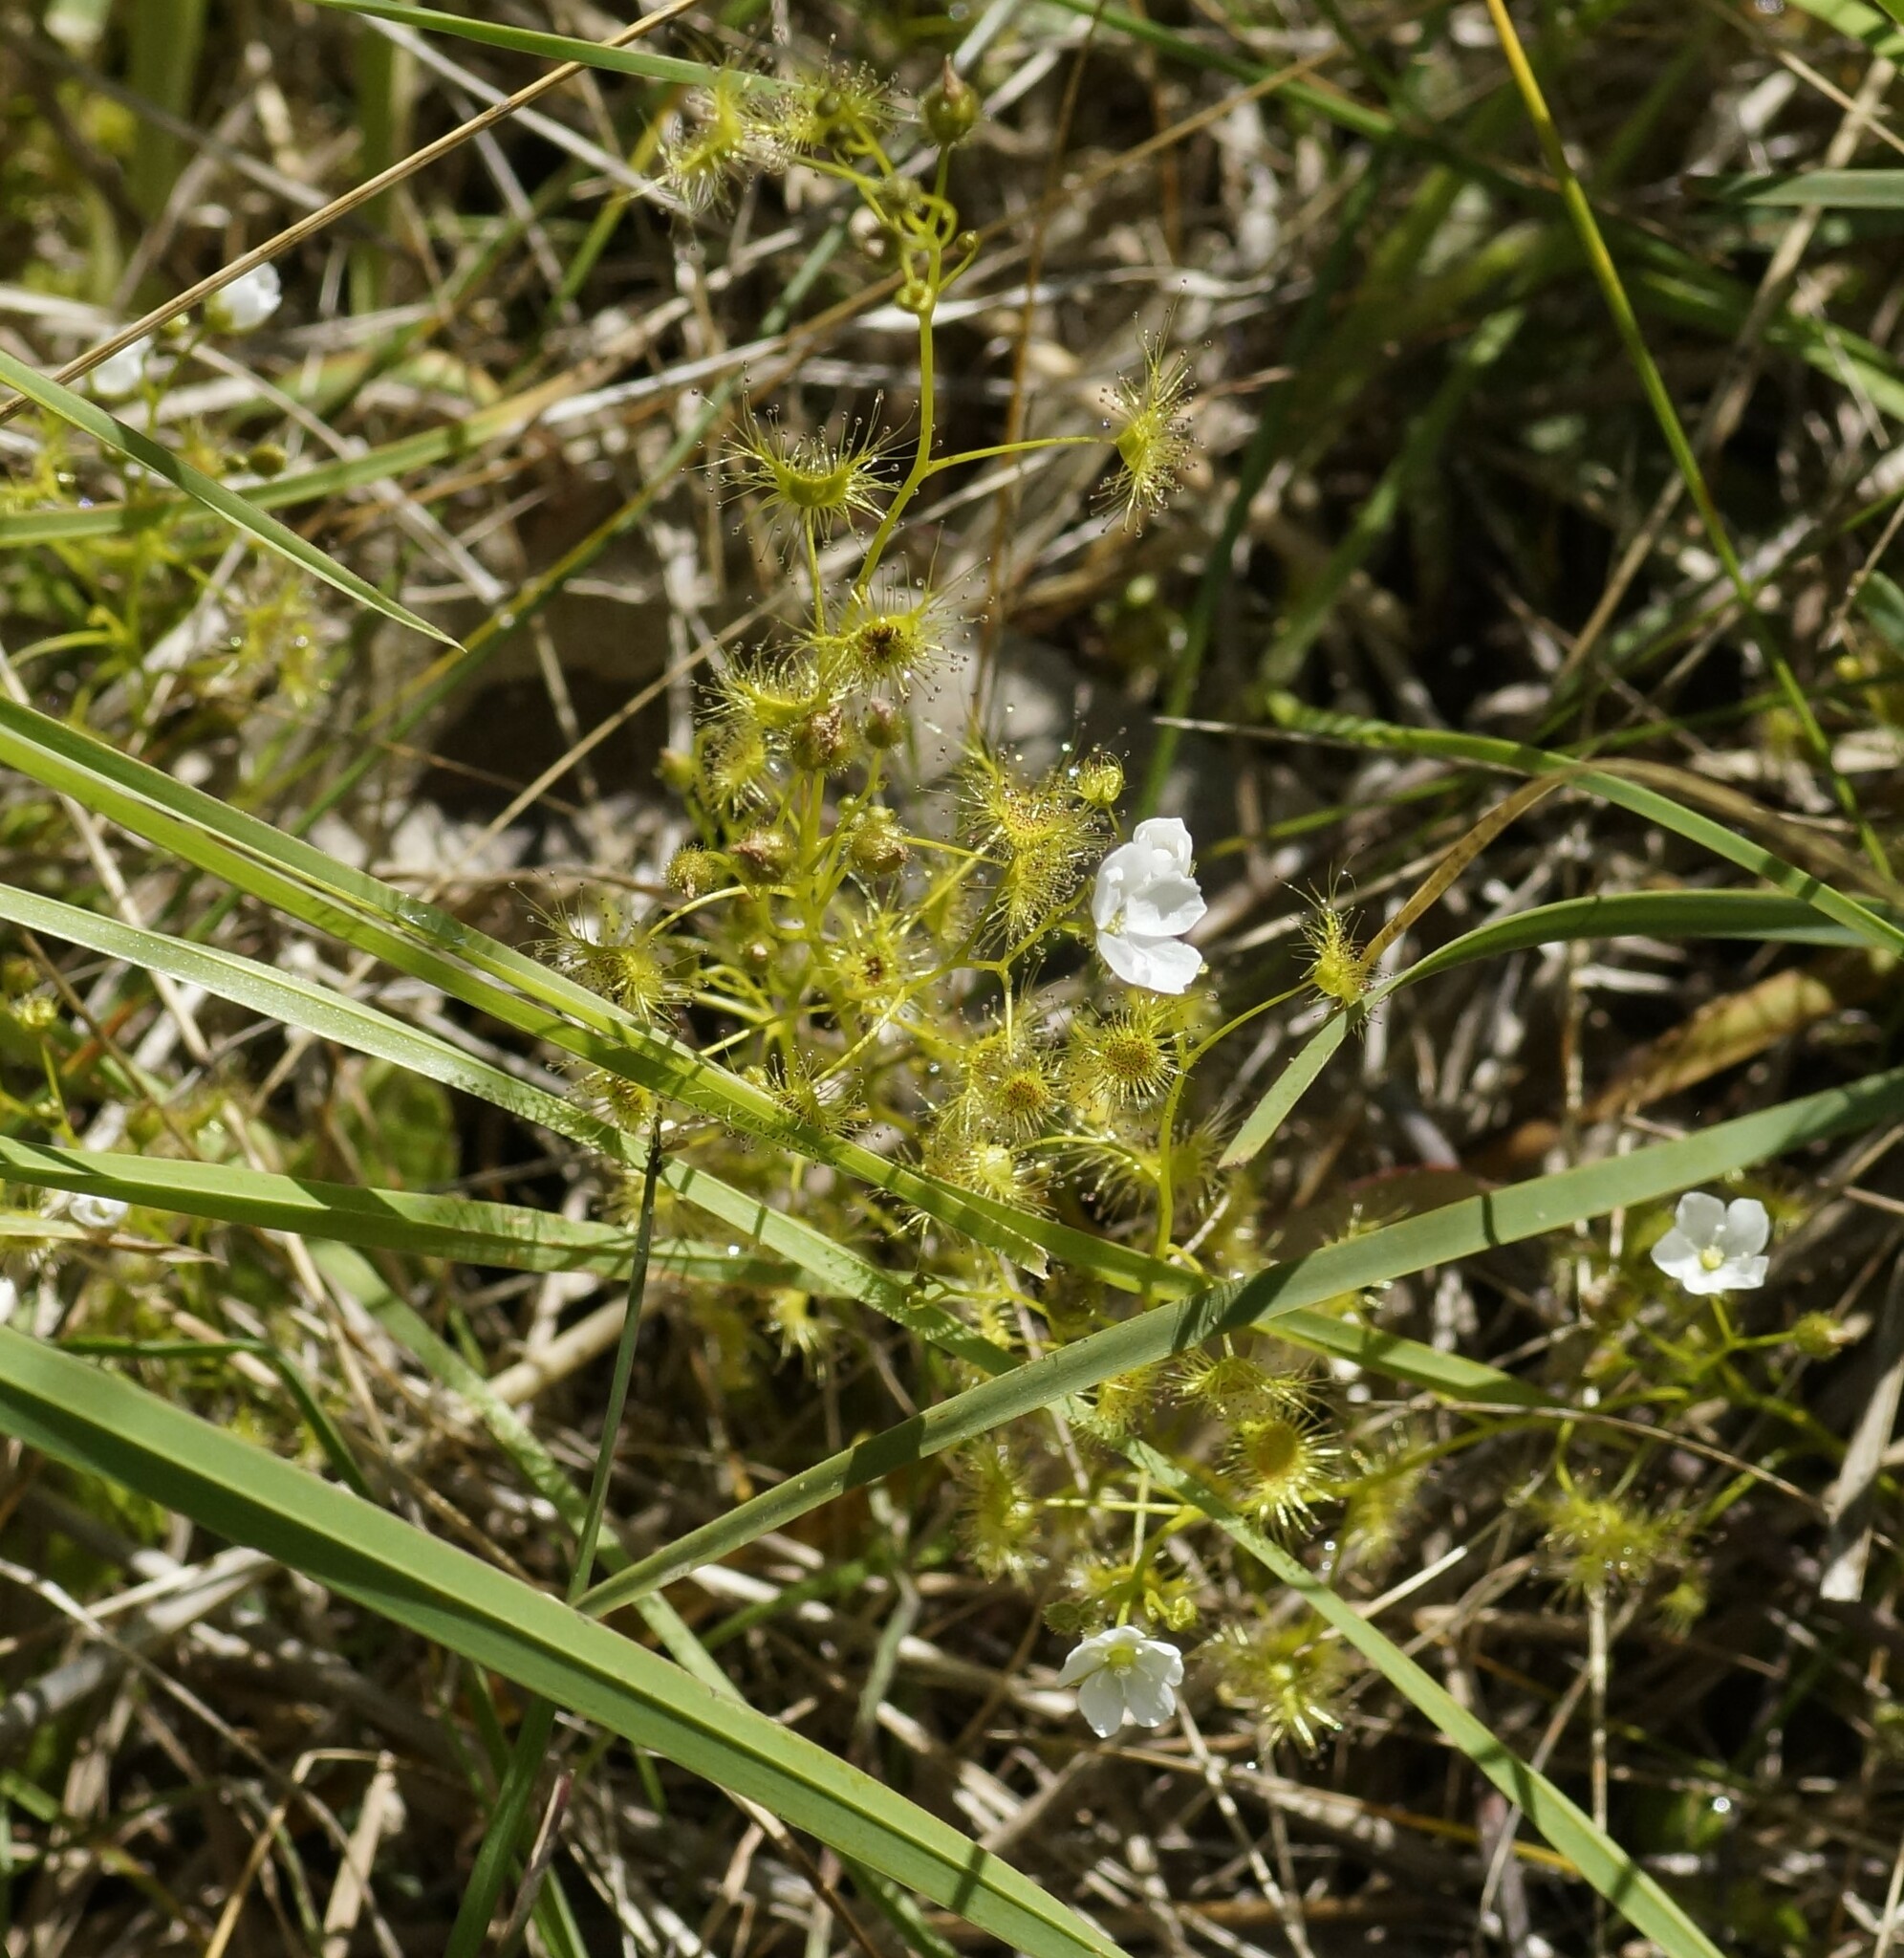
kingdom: Plantae
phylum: Tracheophyta
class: Magnoliopsida
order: Caryophyllales
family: Droseraceae
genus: Drosera
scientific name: Drosera hookeri
